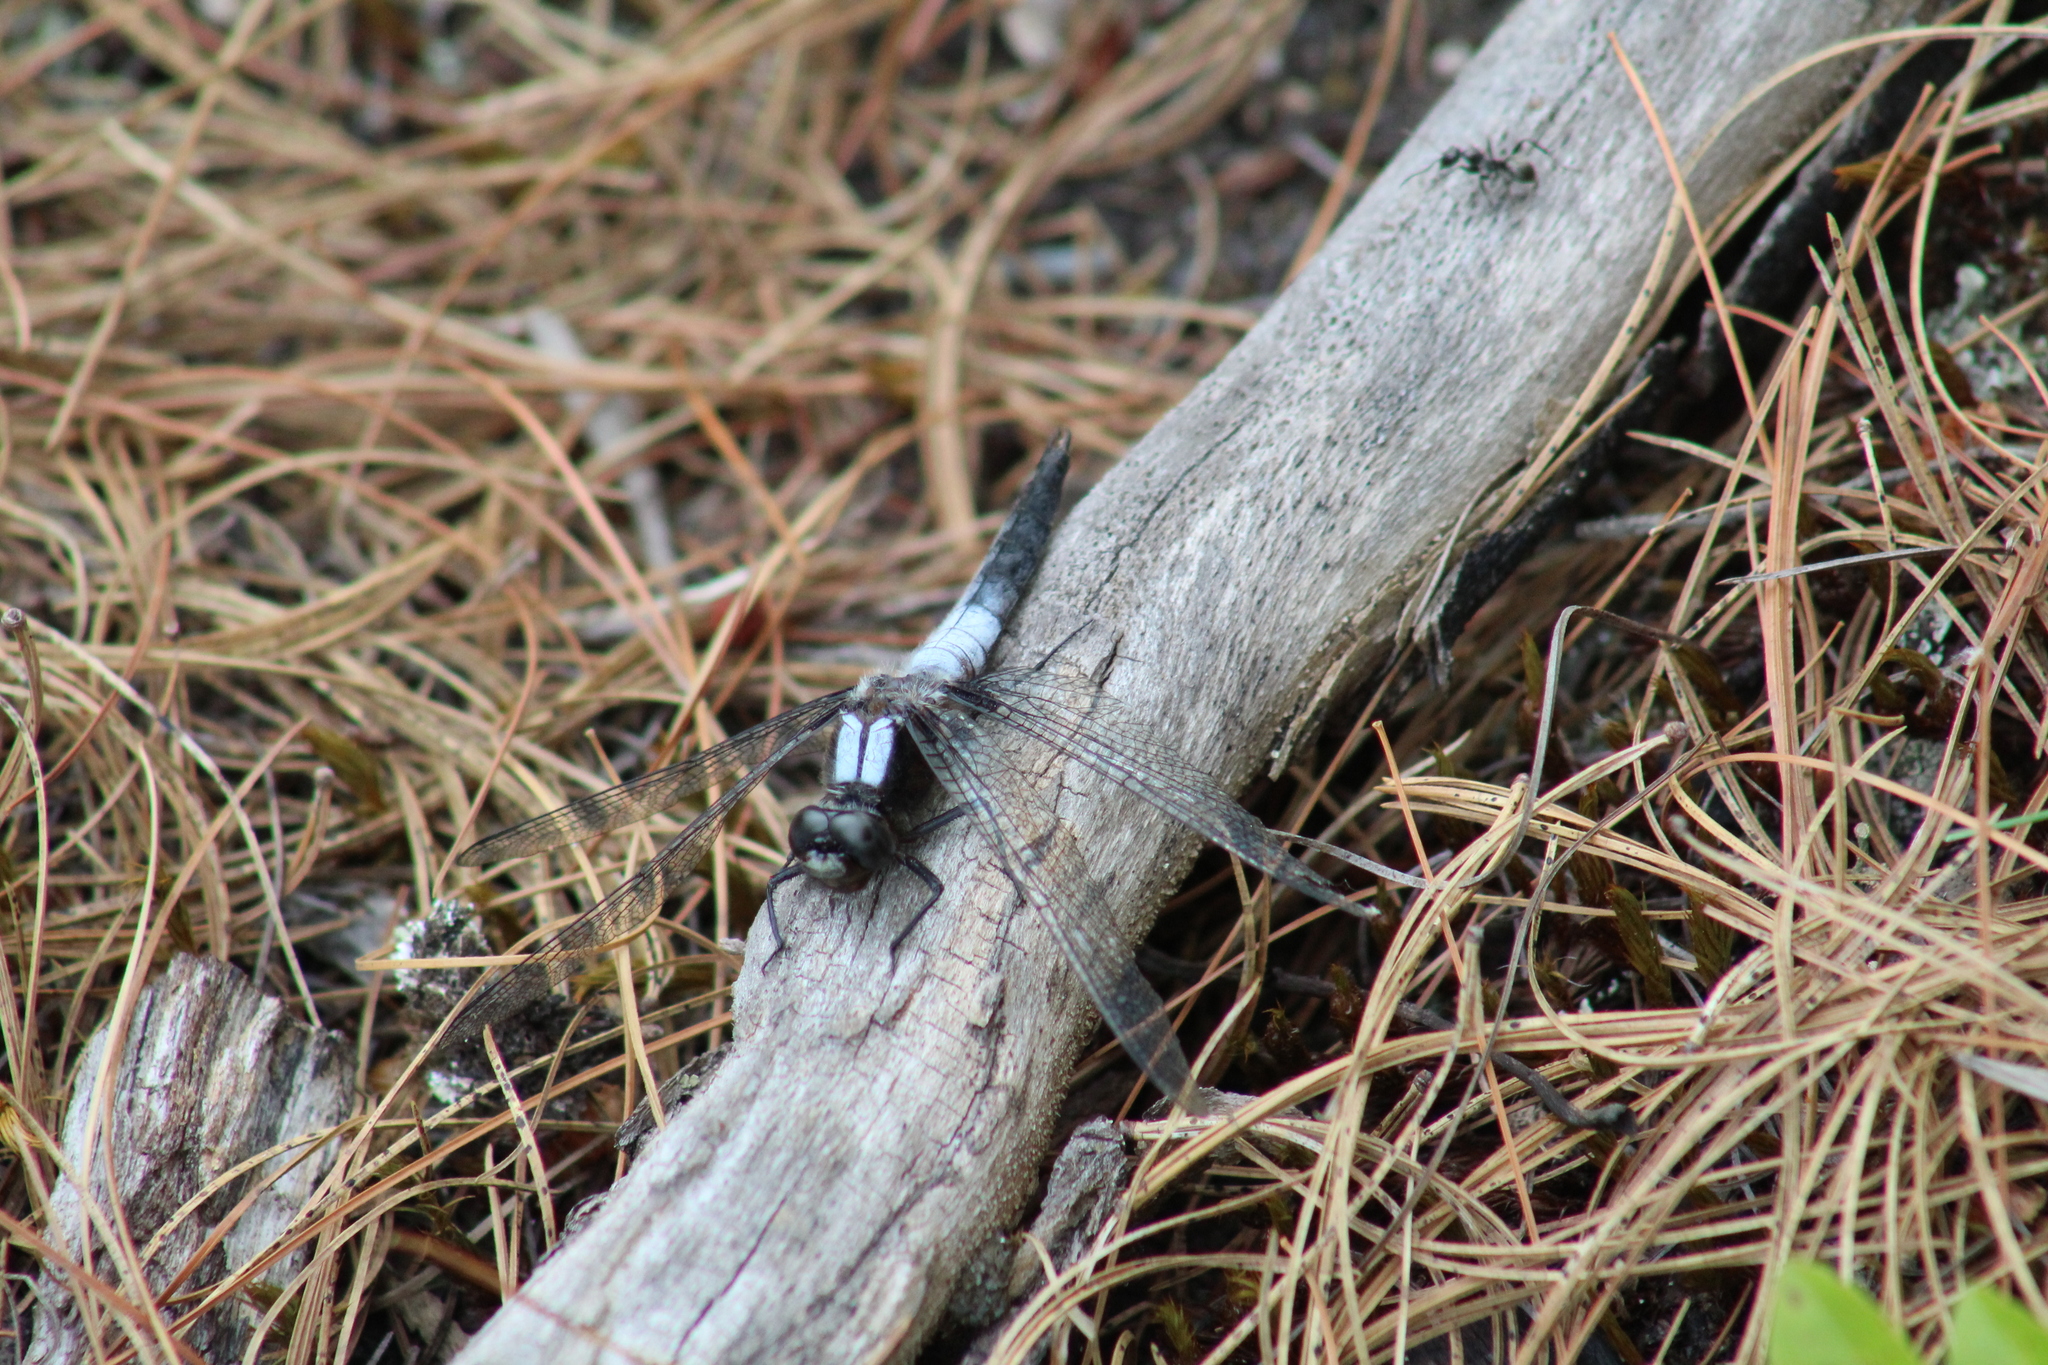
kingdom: Animalia
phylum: Arthropoda
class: Insecta
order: Odonata
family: Libellulidae
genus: Ladona
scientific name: Ladona julia
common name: Chalk-fronted corporal
